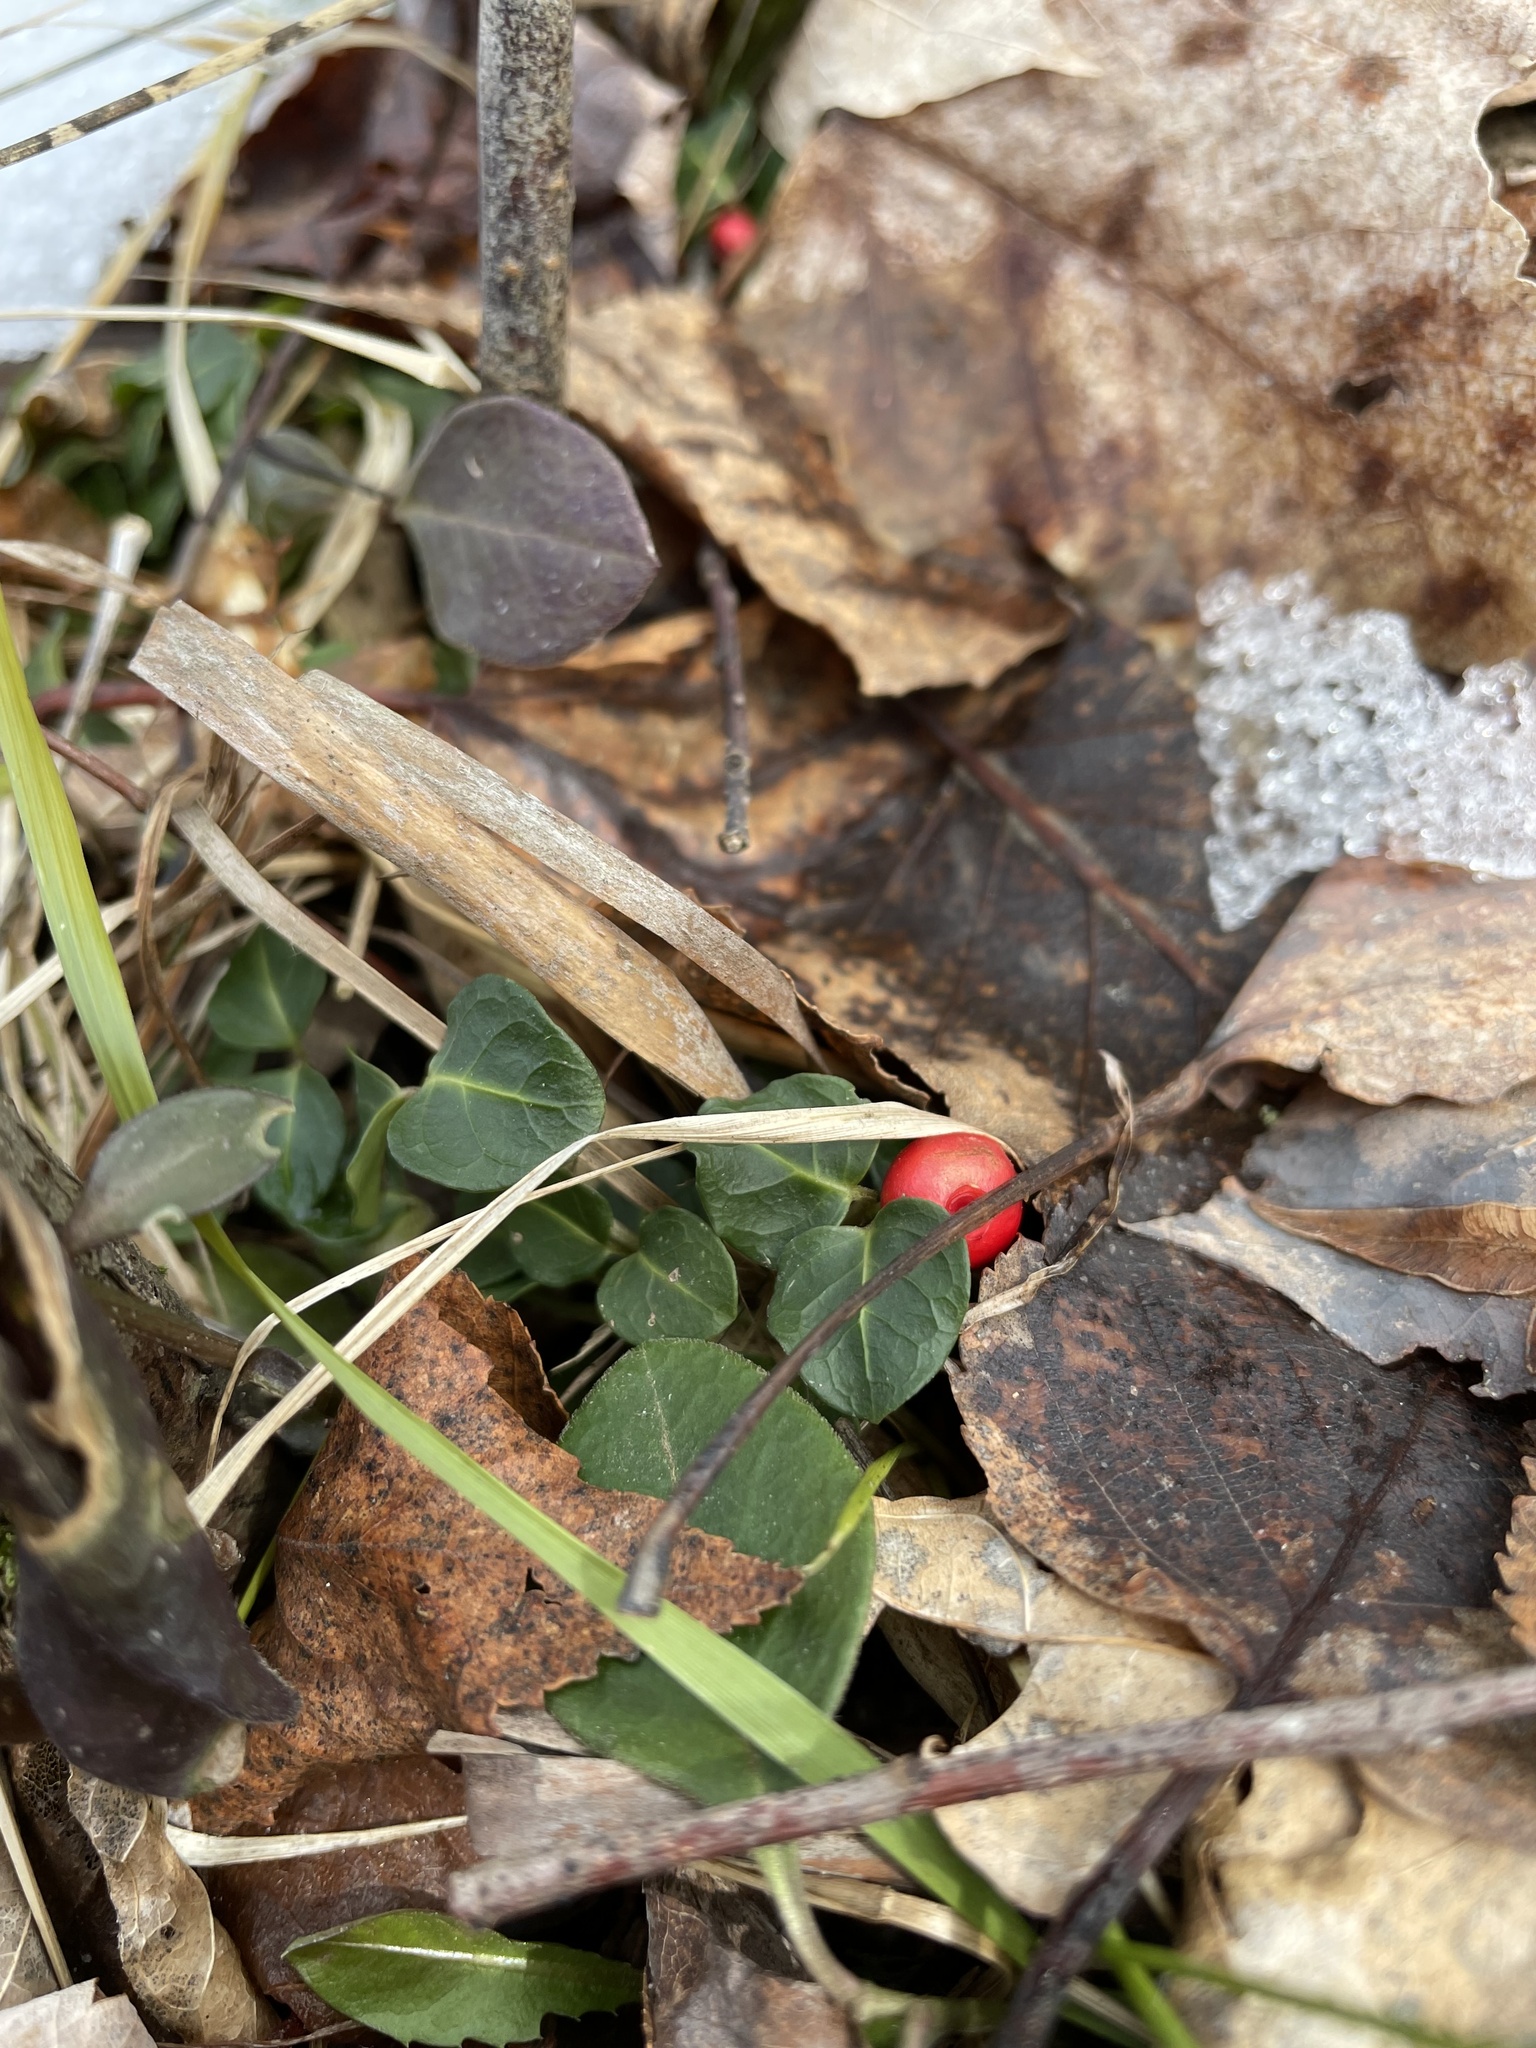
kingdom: Plantae
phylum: Tracheophyta
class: Magnoliopsida
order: Gentianales
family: Rubiaceae
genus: Mitchella
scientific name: Mitchella repens
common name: Partridge-berry
